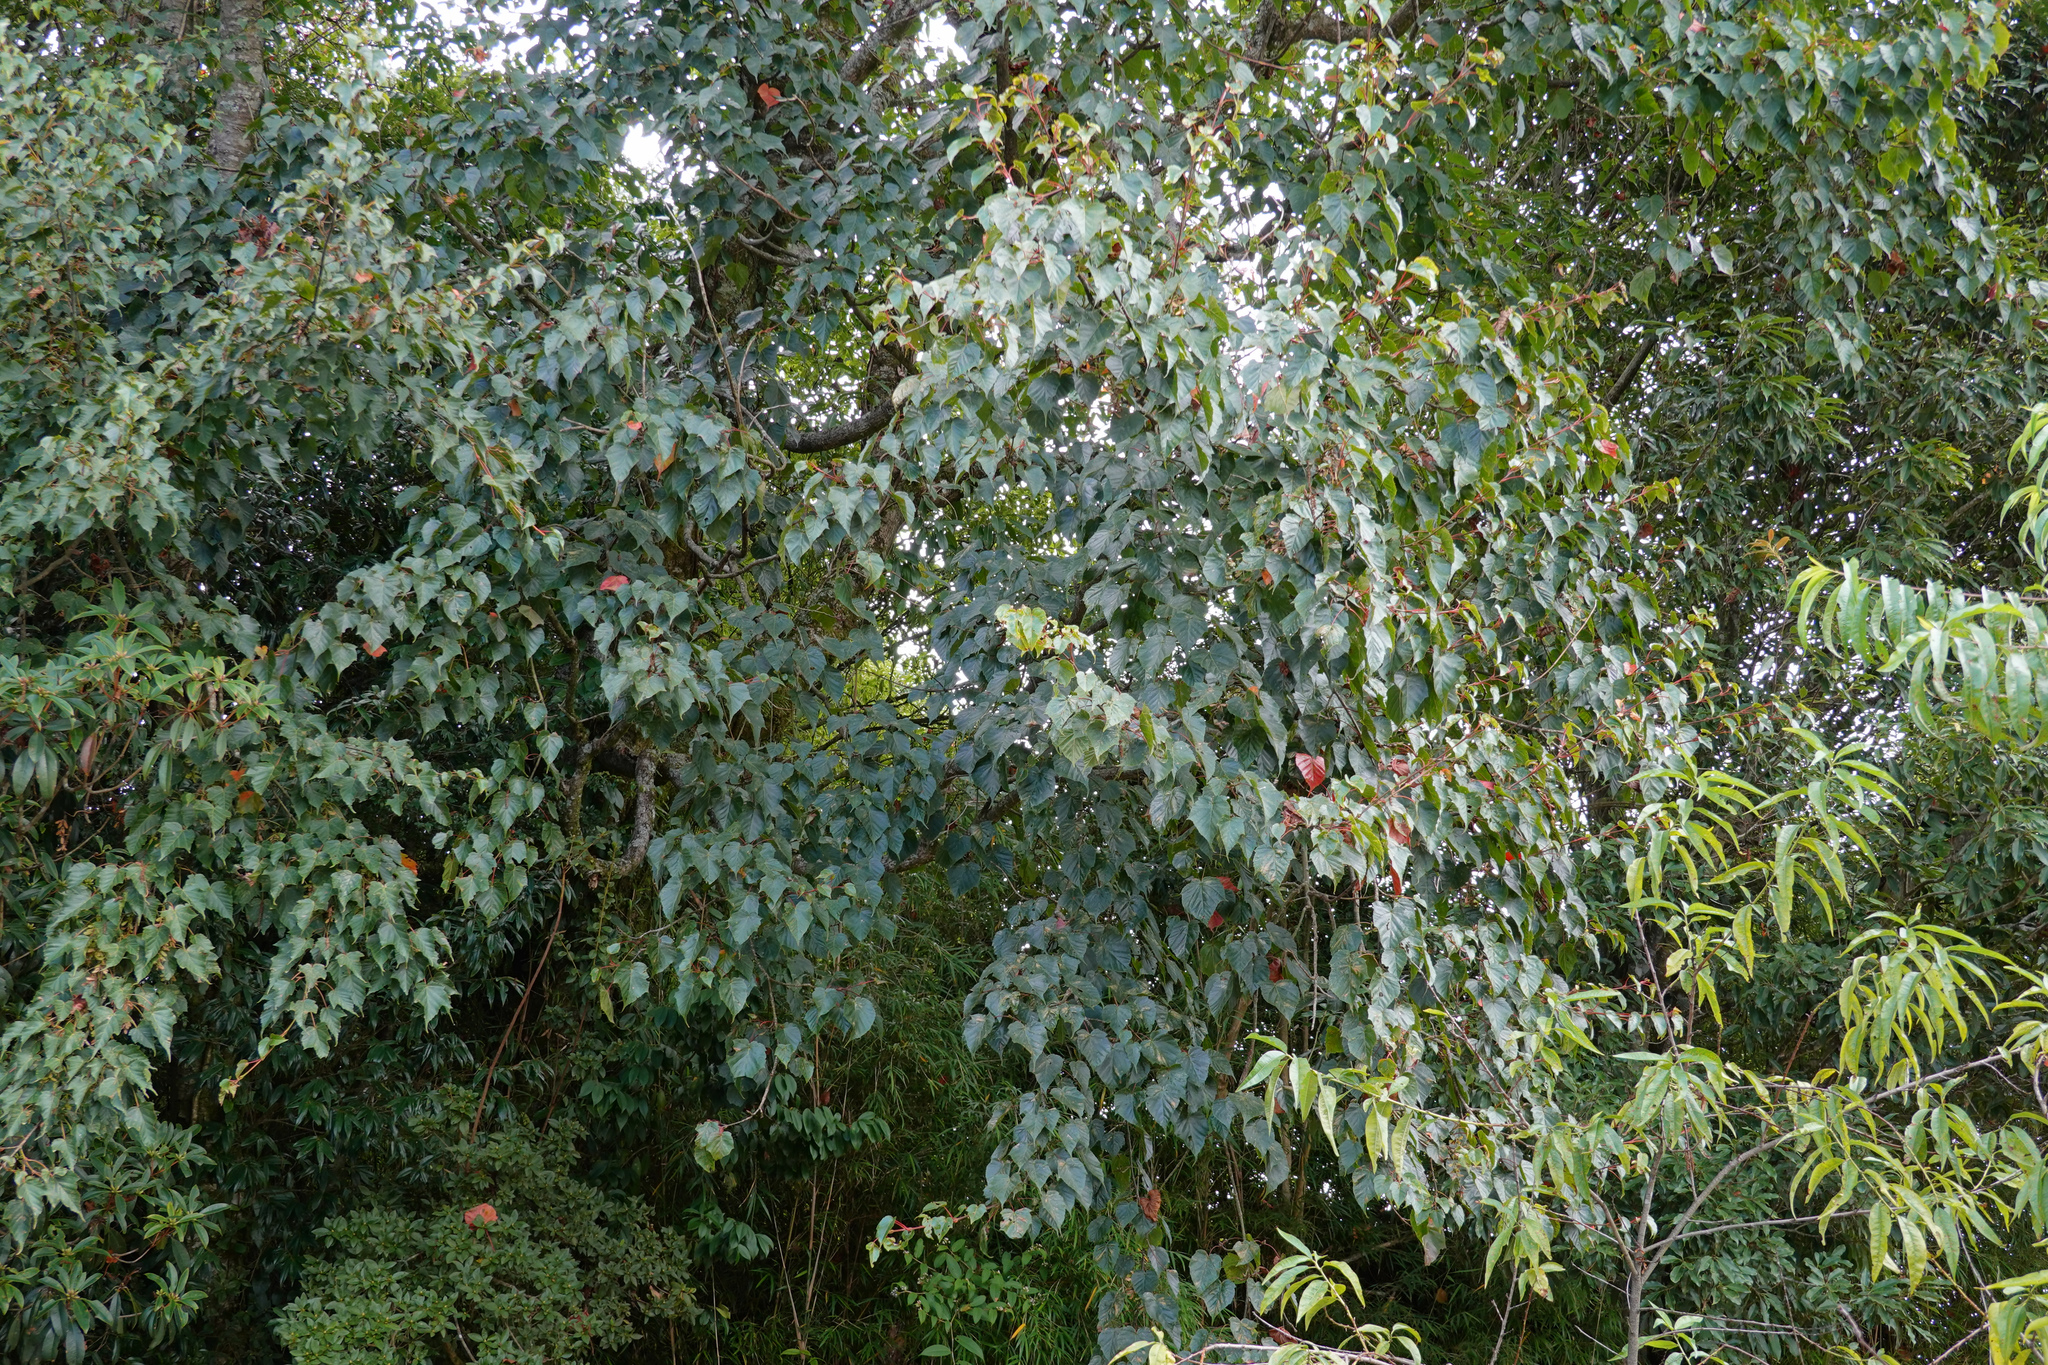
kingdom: Plantae
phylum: Tracheophyta
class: Magnoliopsida
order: Sapindales
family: Sapindaceae
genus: Acer
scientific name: Acer caudatifolium
